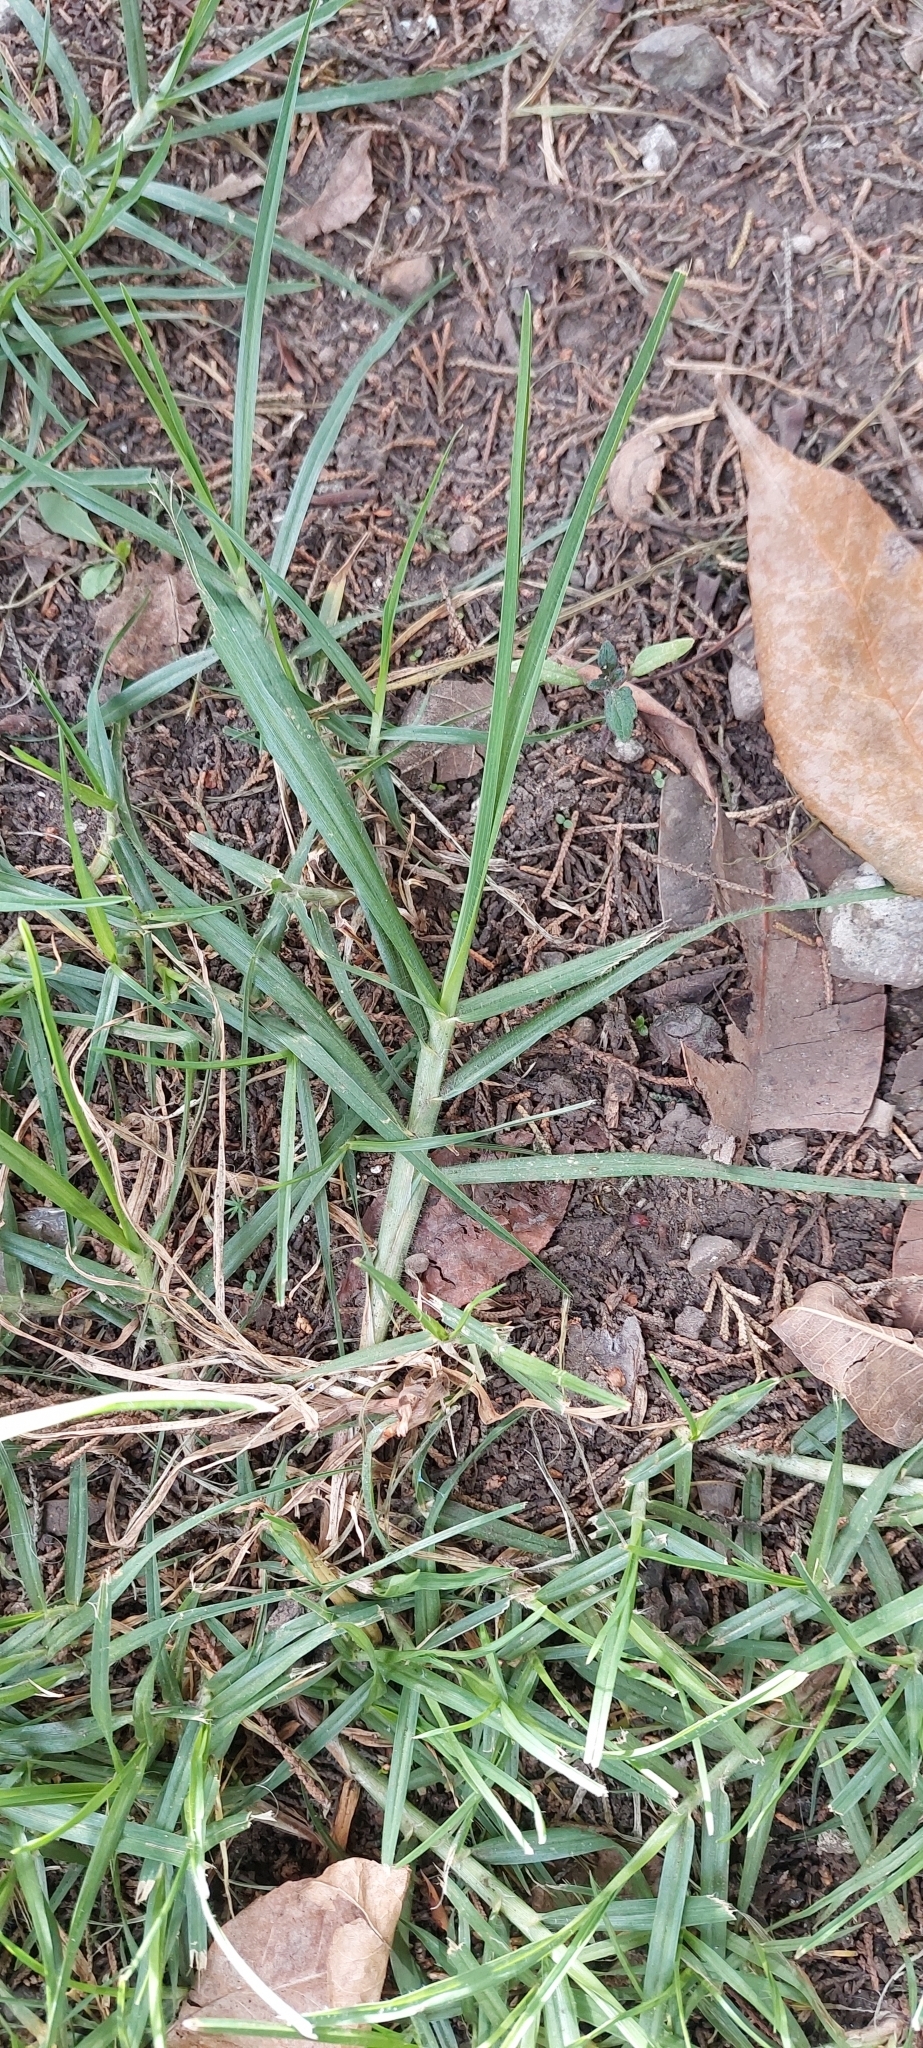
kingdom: Plantae
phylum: Tracheophyta
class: Liliopsida
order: Poales
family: Poaceae
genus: Cenchrus
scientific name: Cenchrus clandestinus
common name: Kikuyugrass
